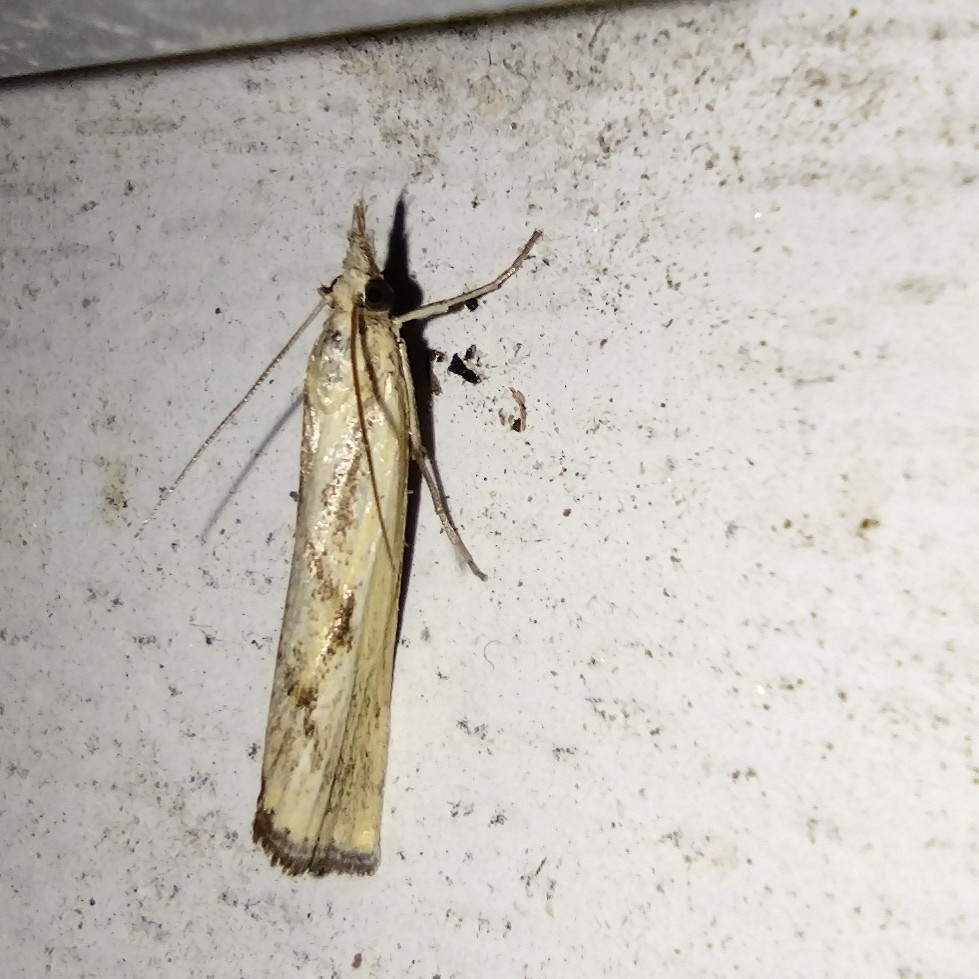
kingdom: Animalia
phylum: Arthropoda
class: Insecta
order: Lepidoptera
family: Crambidae
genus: Agriphila
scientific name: Agriphila inquinatella
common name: Barred grass-veneer
